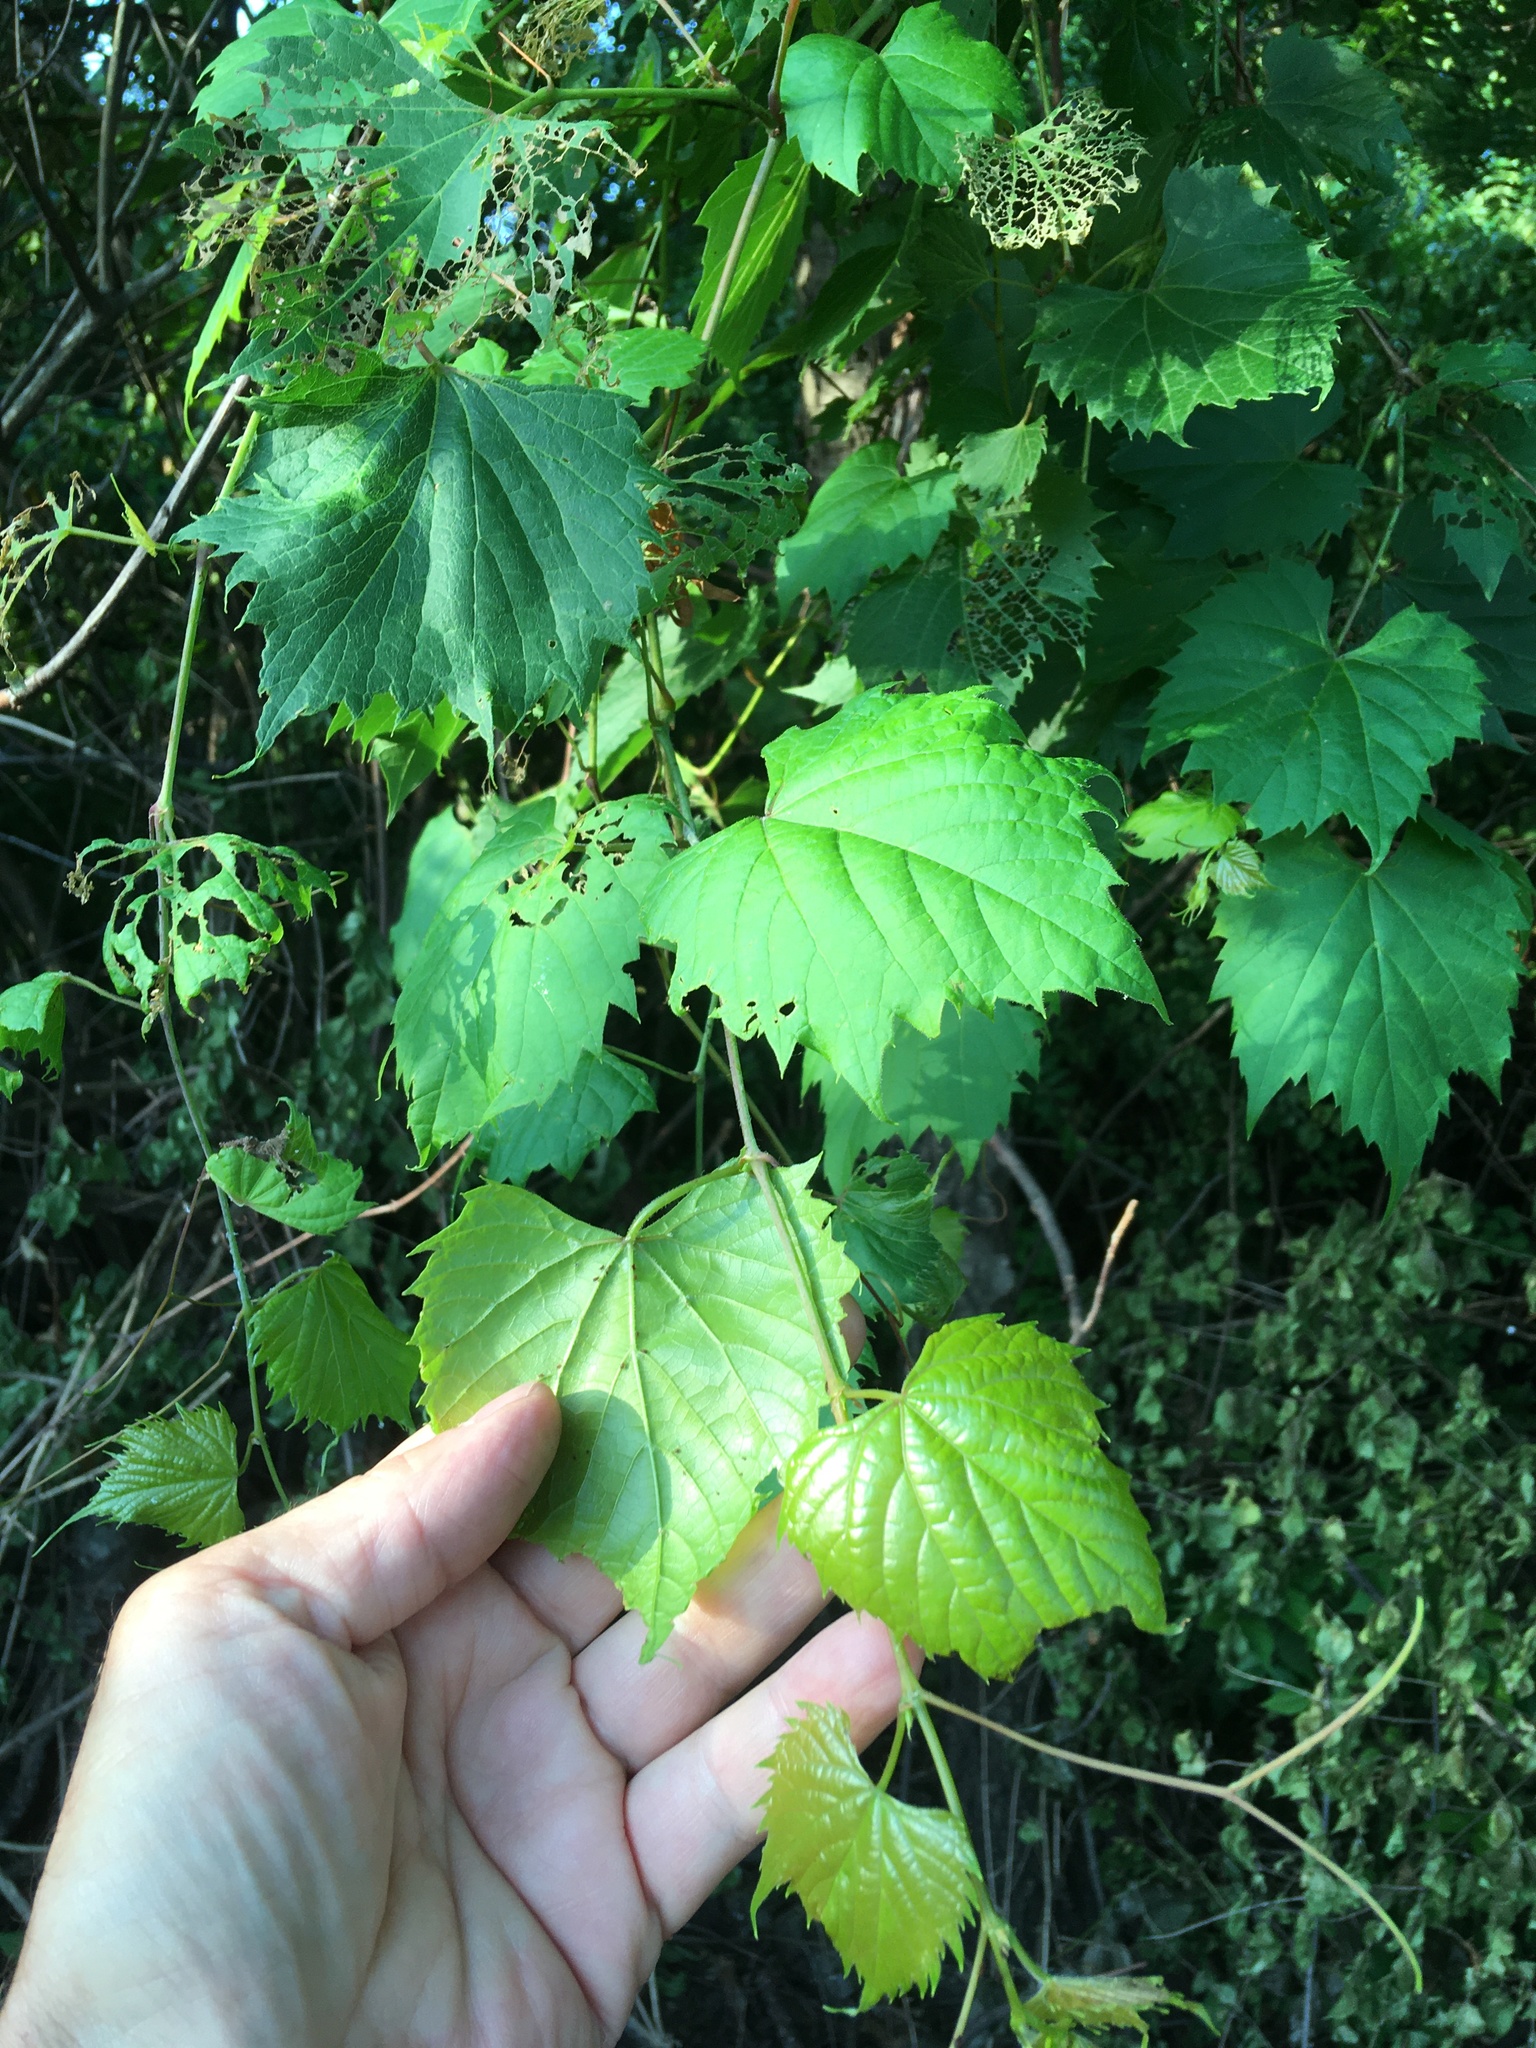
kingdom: Plantae
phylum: Tracheophyta
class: Magnoliopsida
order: Vitales
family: Vitaceae
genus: Vitis
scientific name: Vitis riparia
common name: Frost grape
